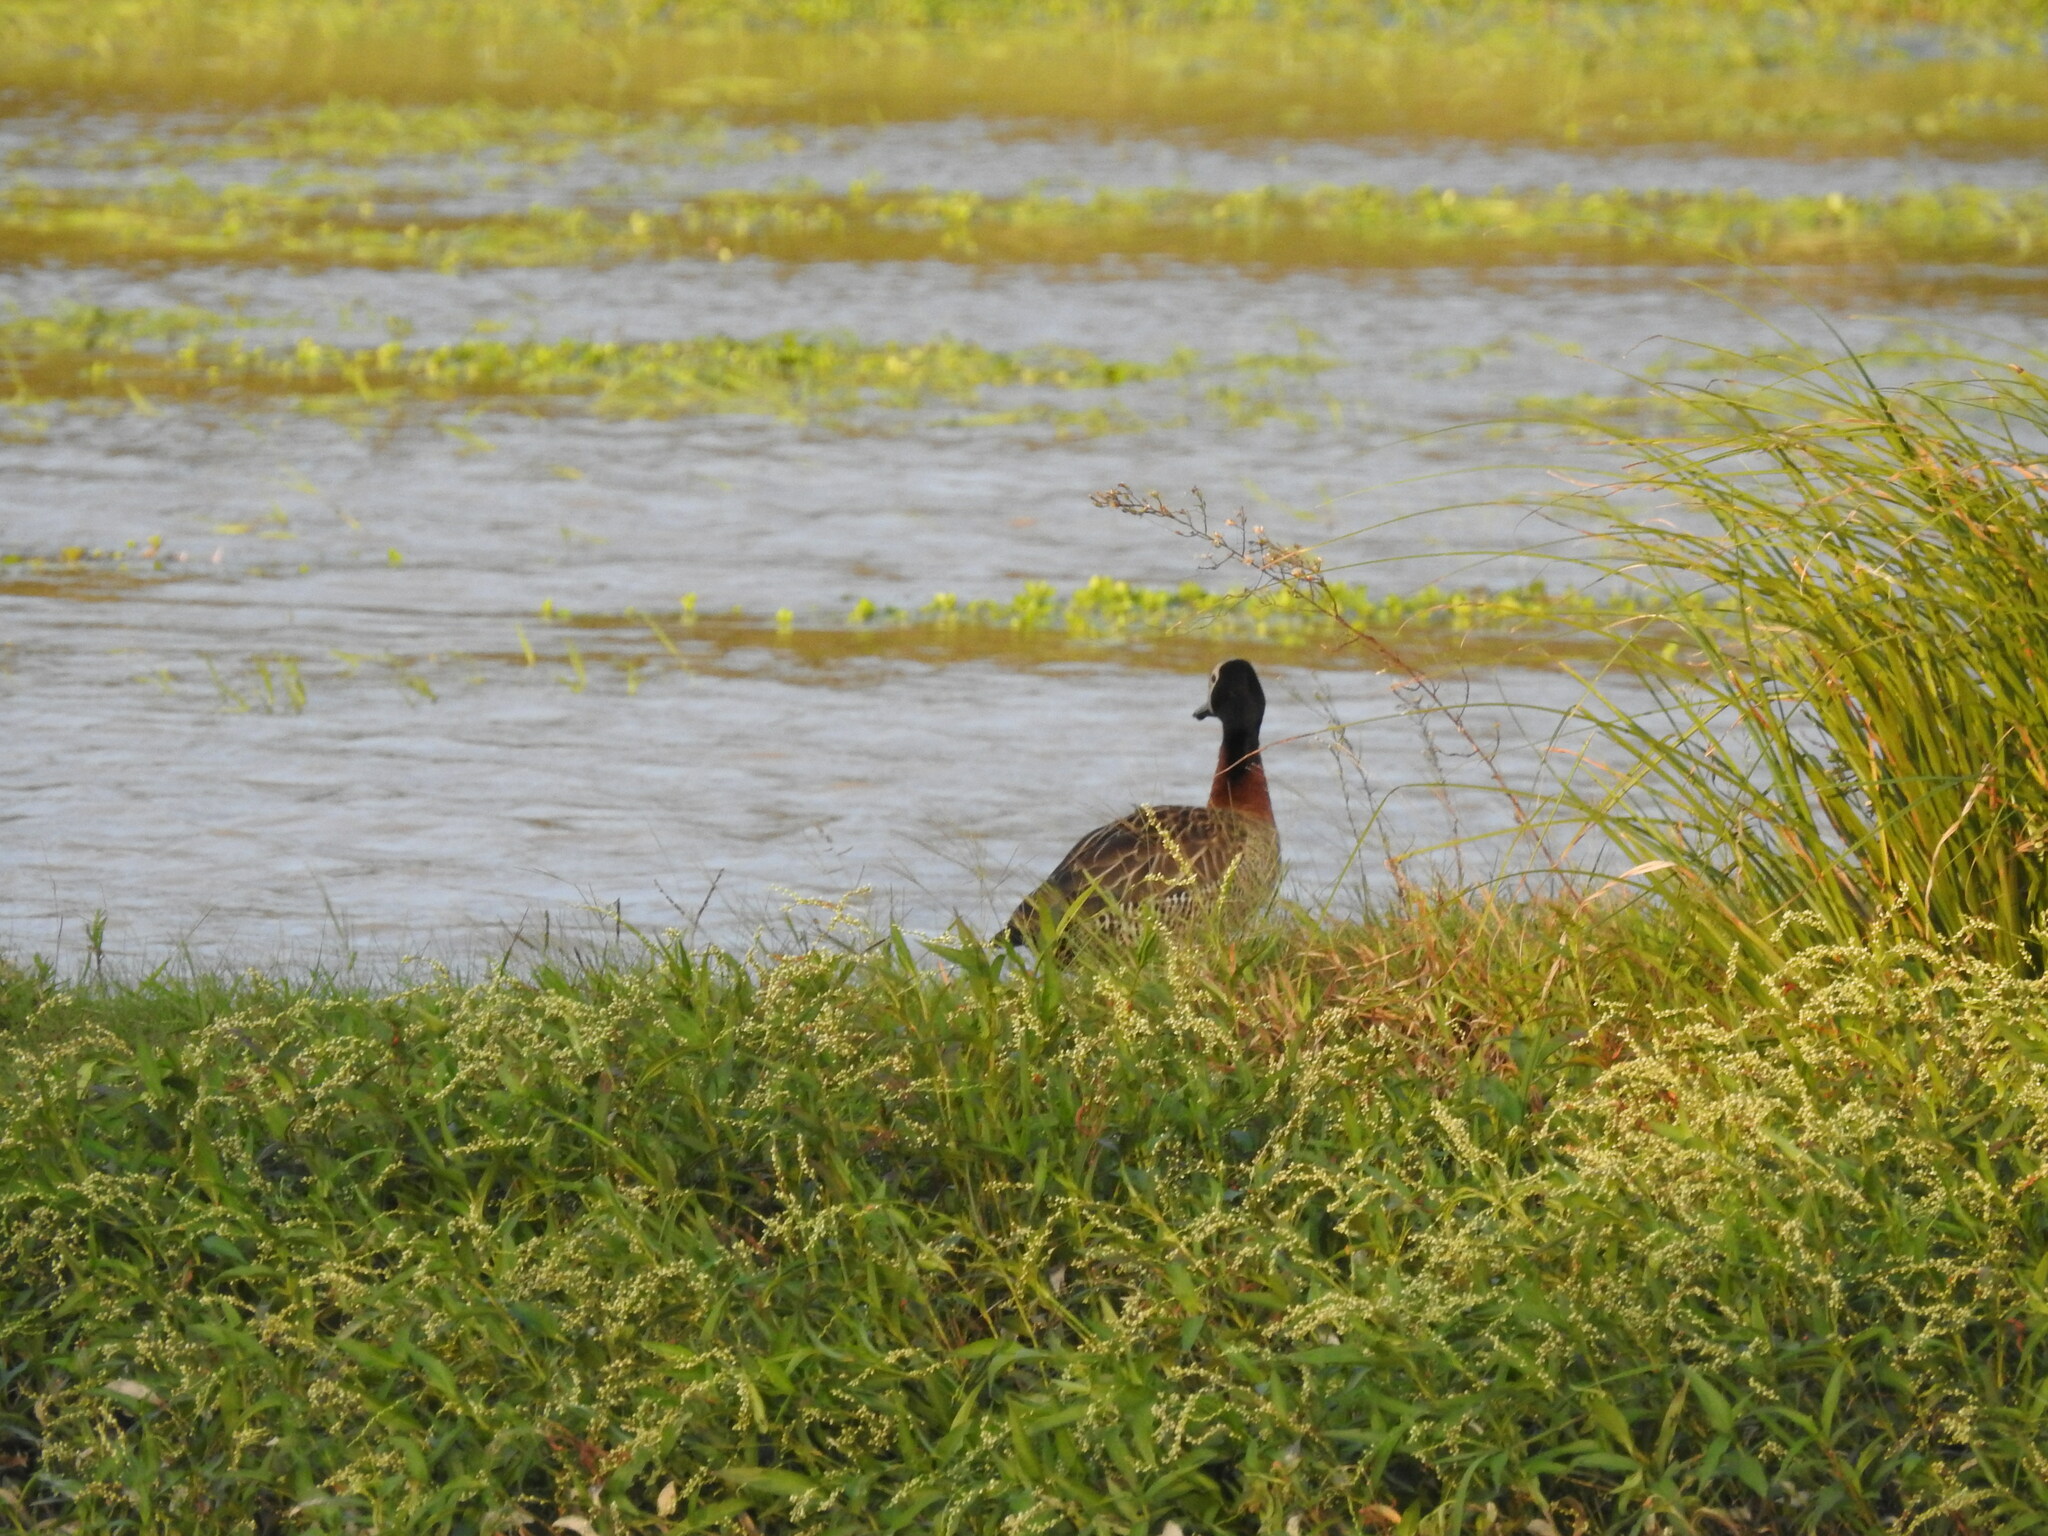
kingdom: Animalia
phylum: Chordata
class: Aves
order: Anseriformes
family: Anatidae
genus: Dendrocygna
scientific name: Dendrocygna viduata
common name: White-faced whistling duck
